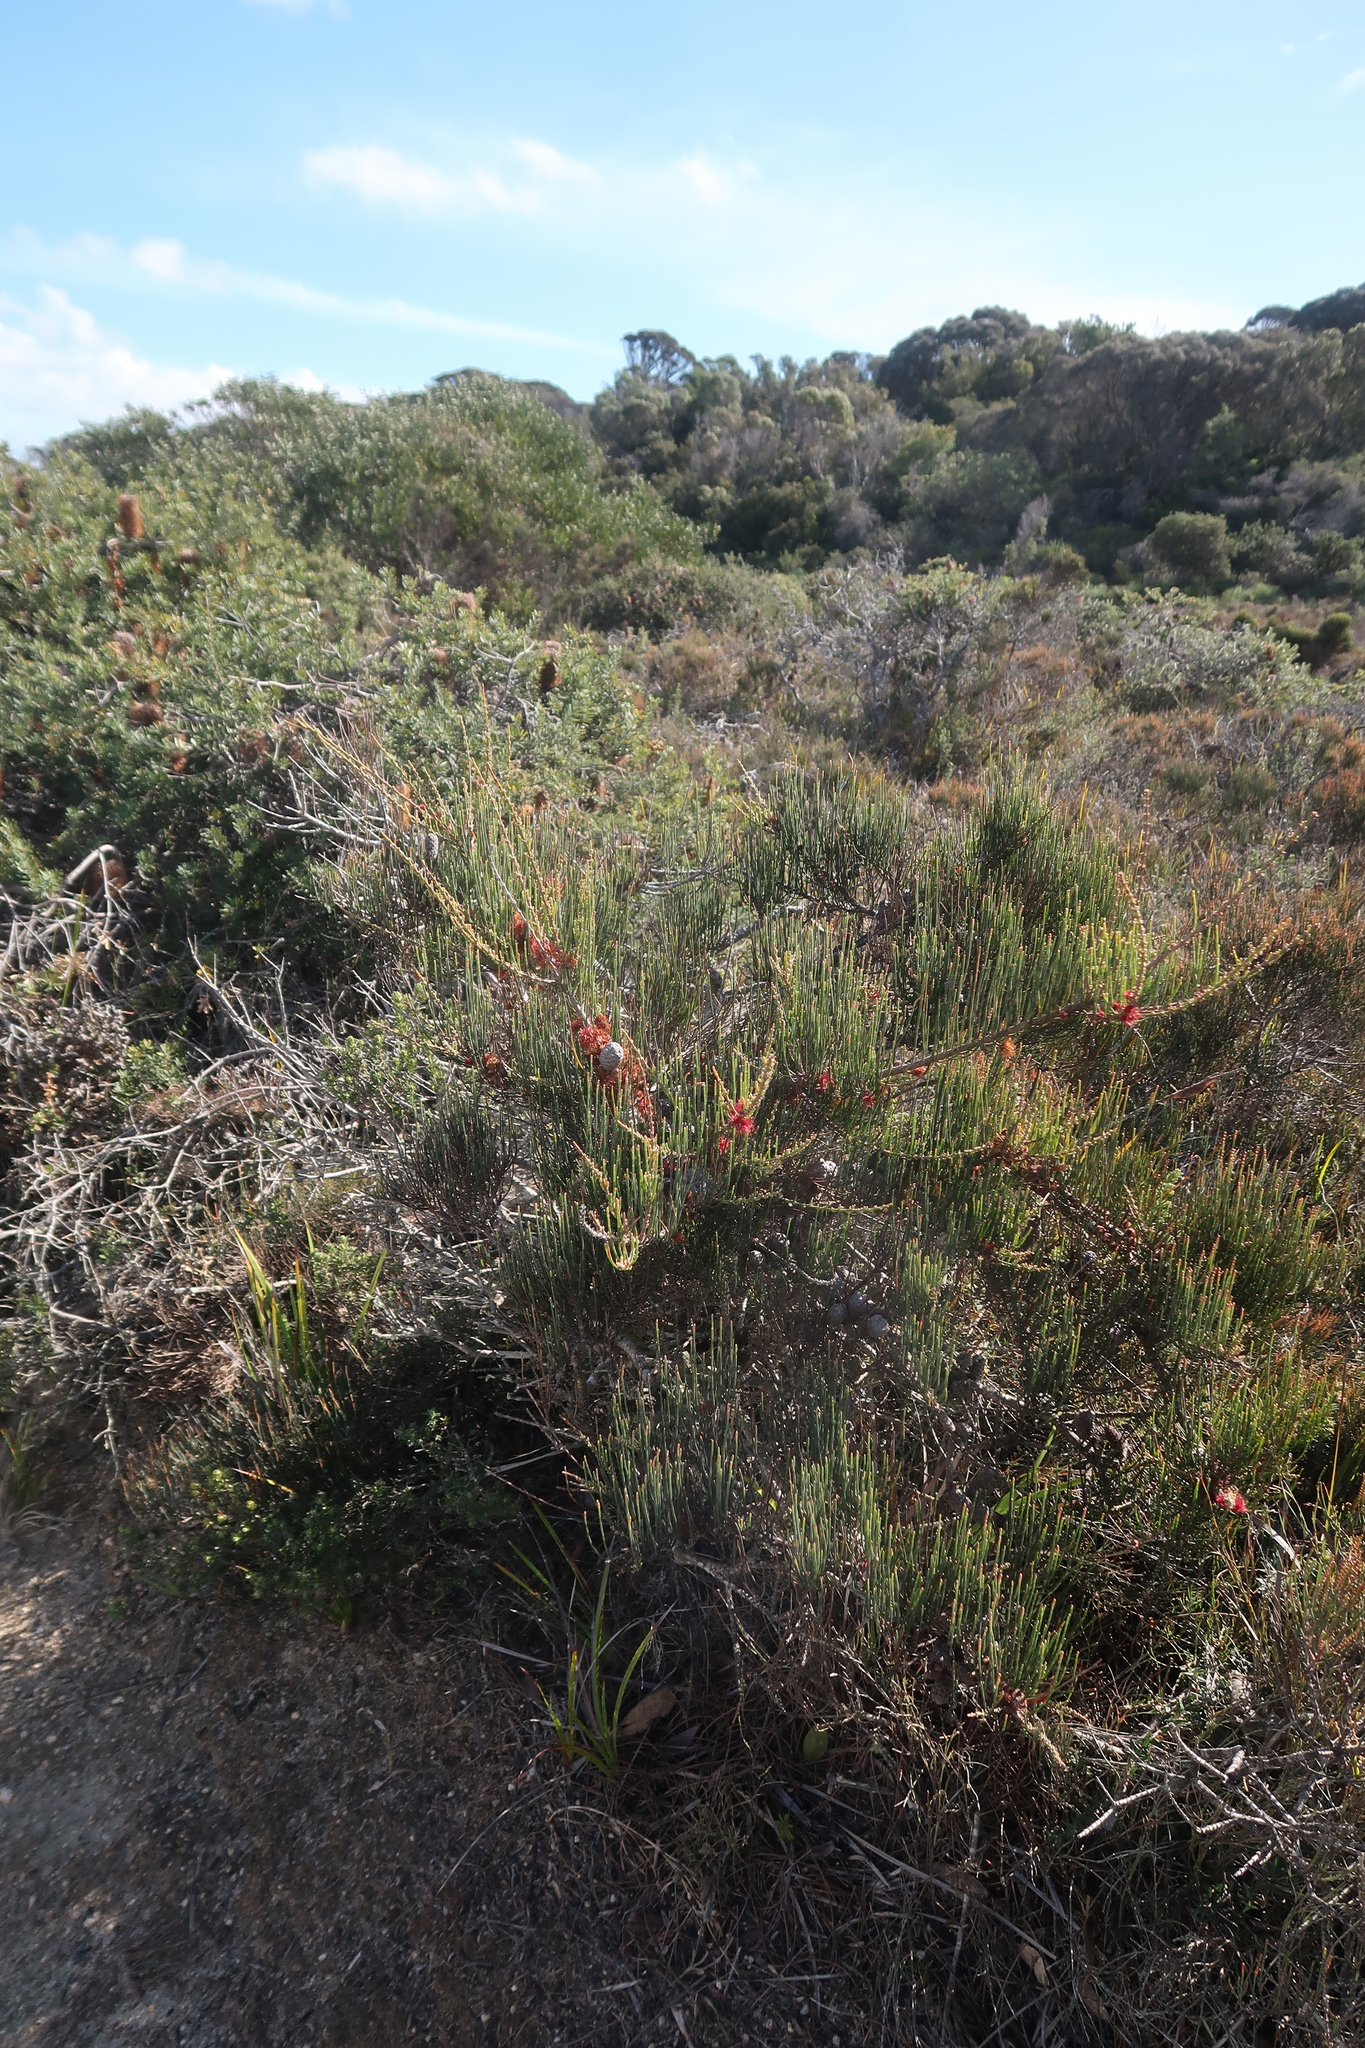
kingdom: Plantae
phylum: Tracheophyta
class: Magnoliopsida
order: Fagales
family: Casuarinaceae
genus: Allocasuarina
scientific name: Allocasuarina monilifera
